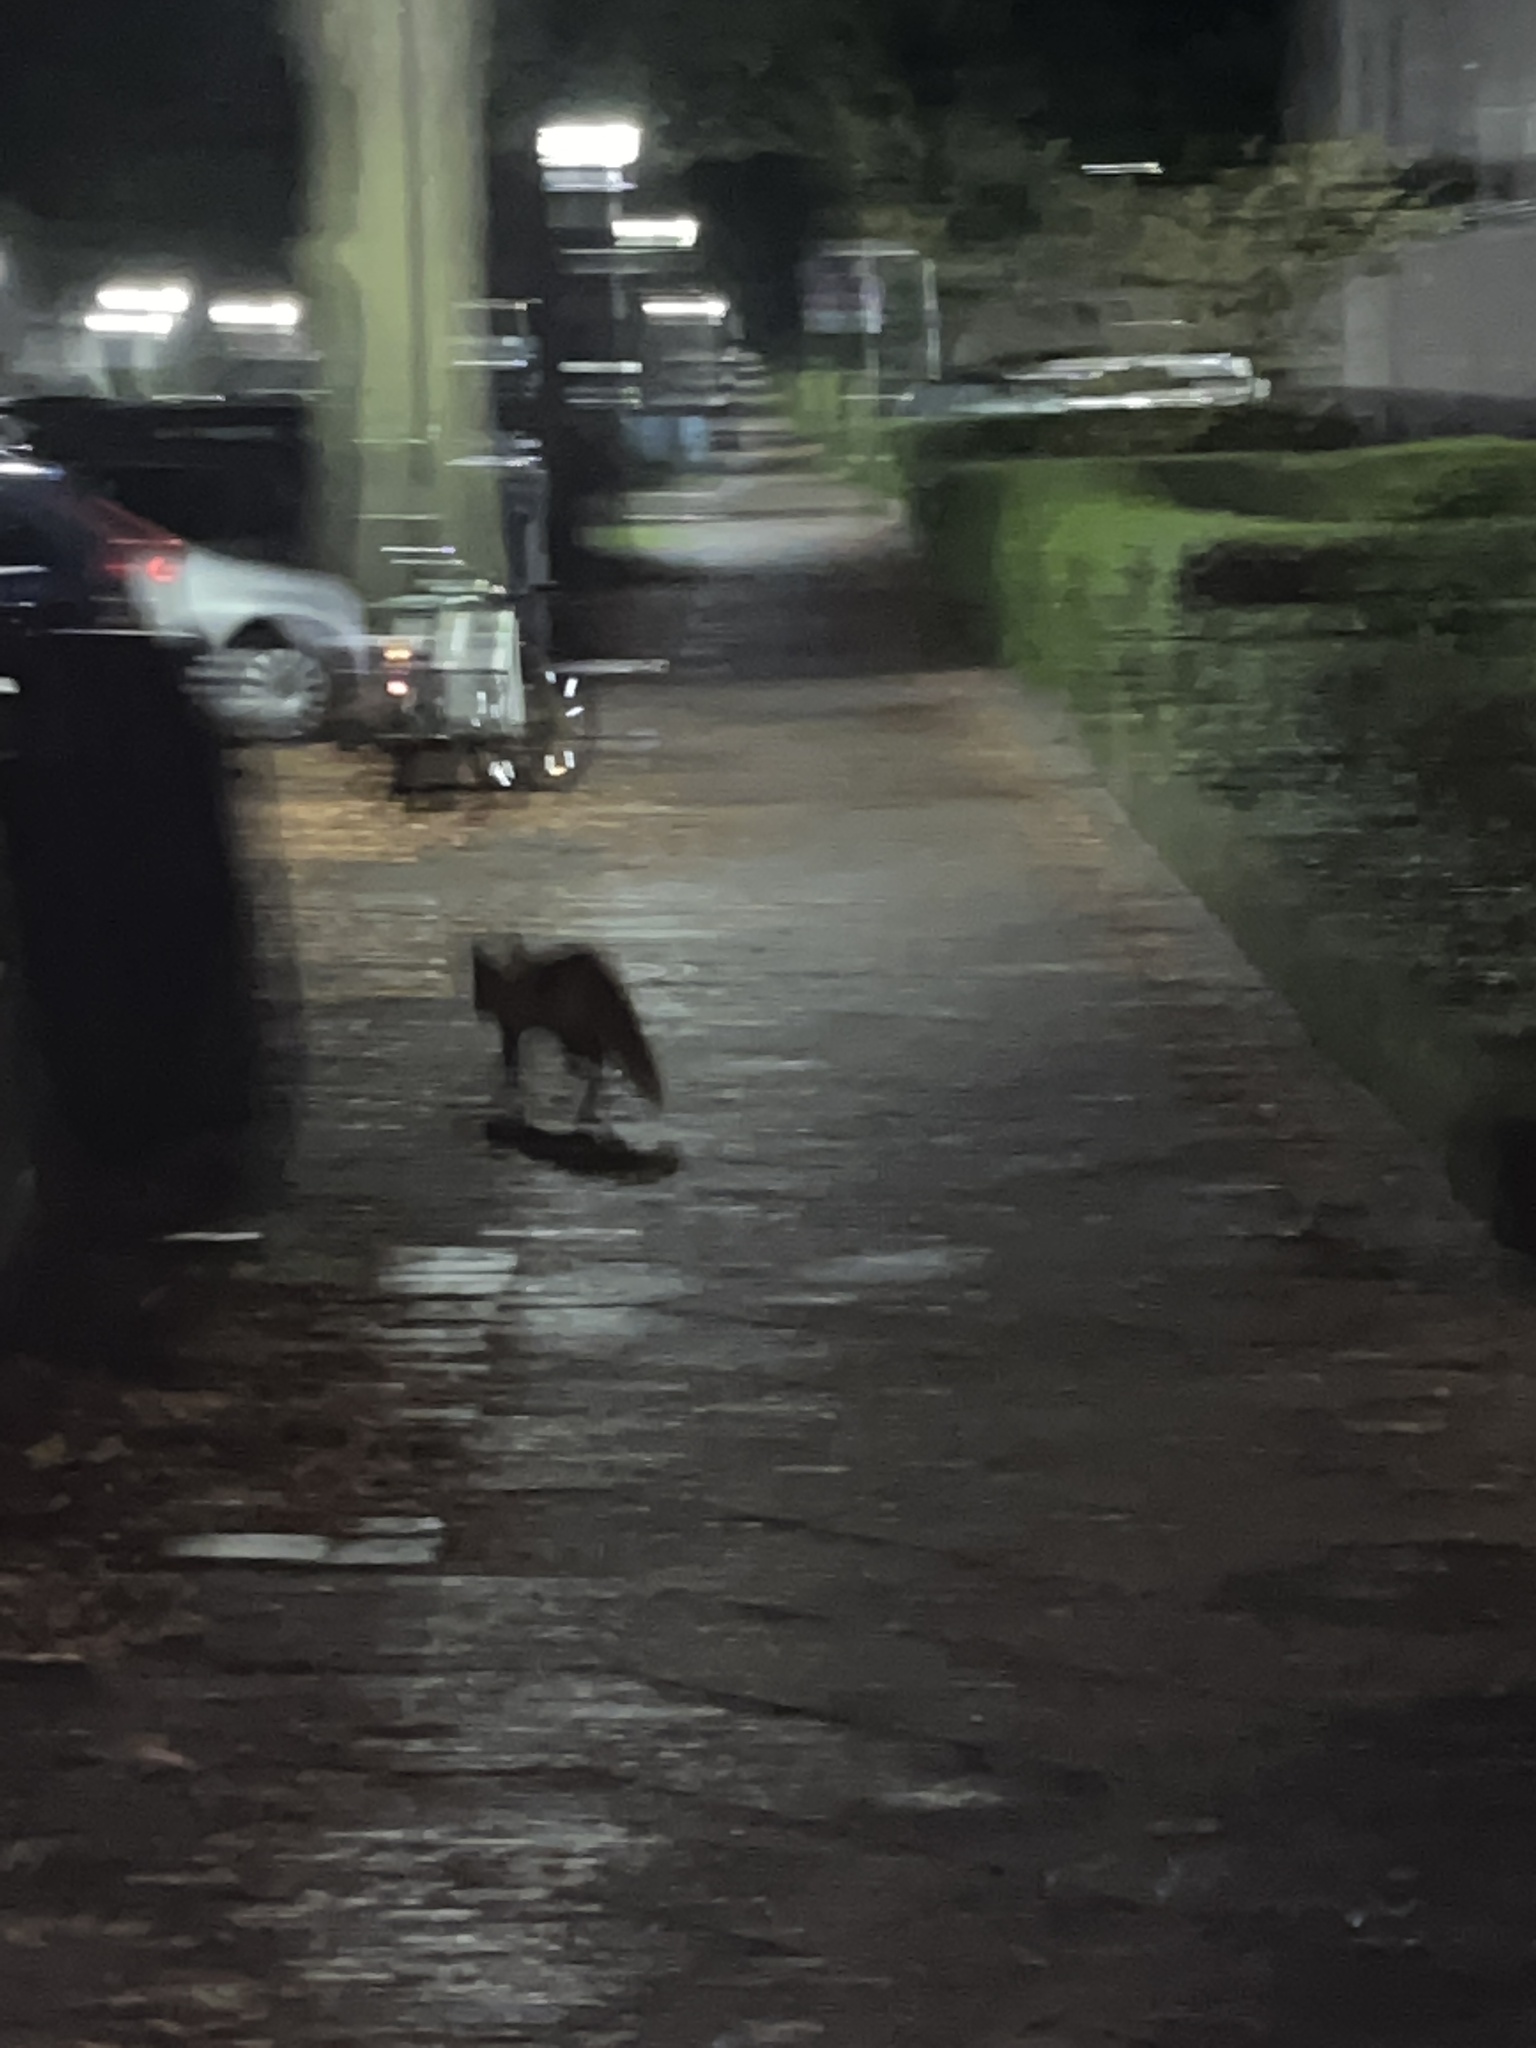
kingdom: Animalia
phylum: Chordata
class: Mammalia
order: Carnivora
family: Canidae
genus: Vulpes
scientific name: Vulpes vulpes
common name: Red fox
